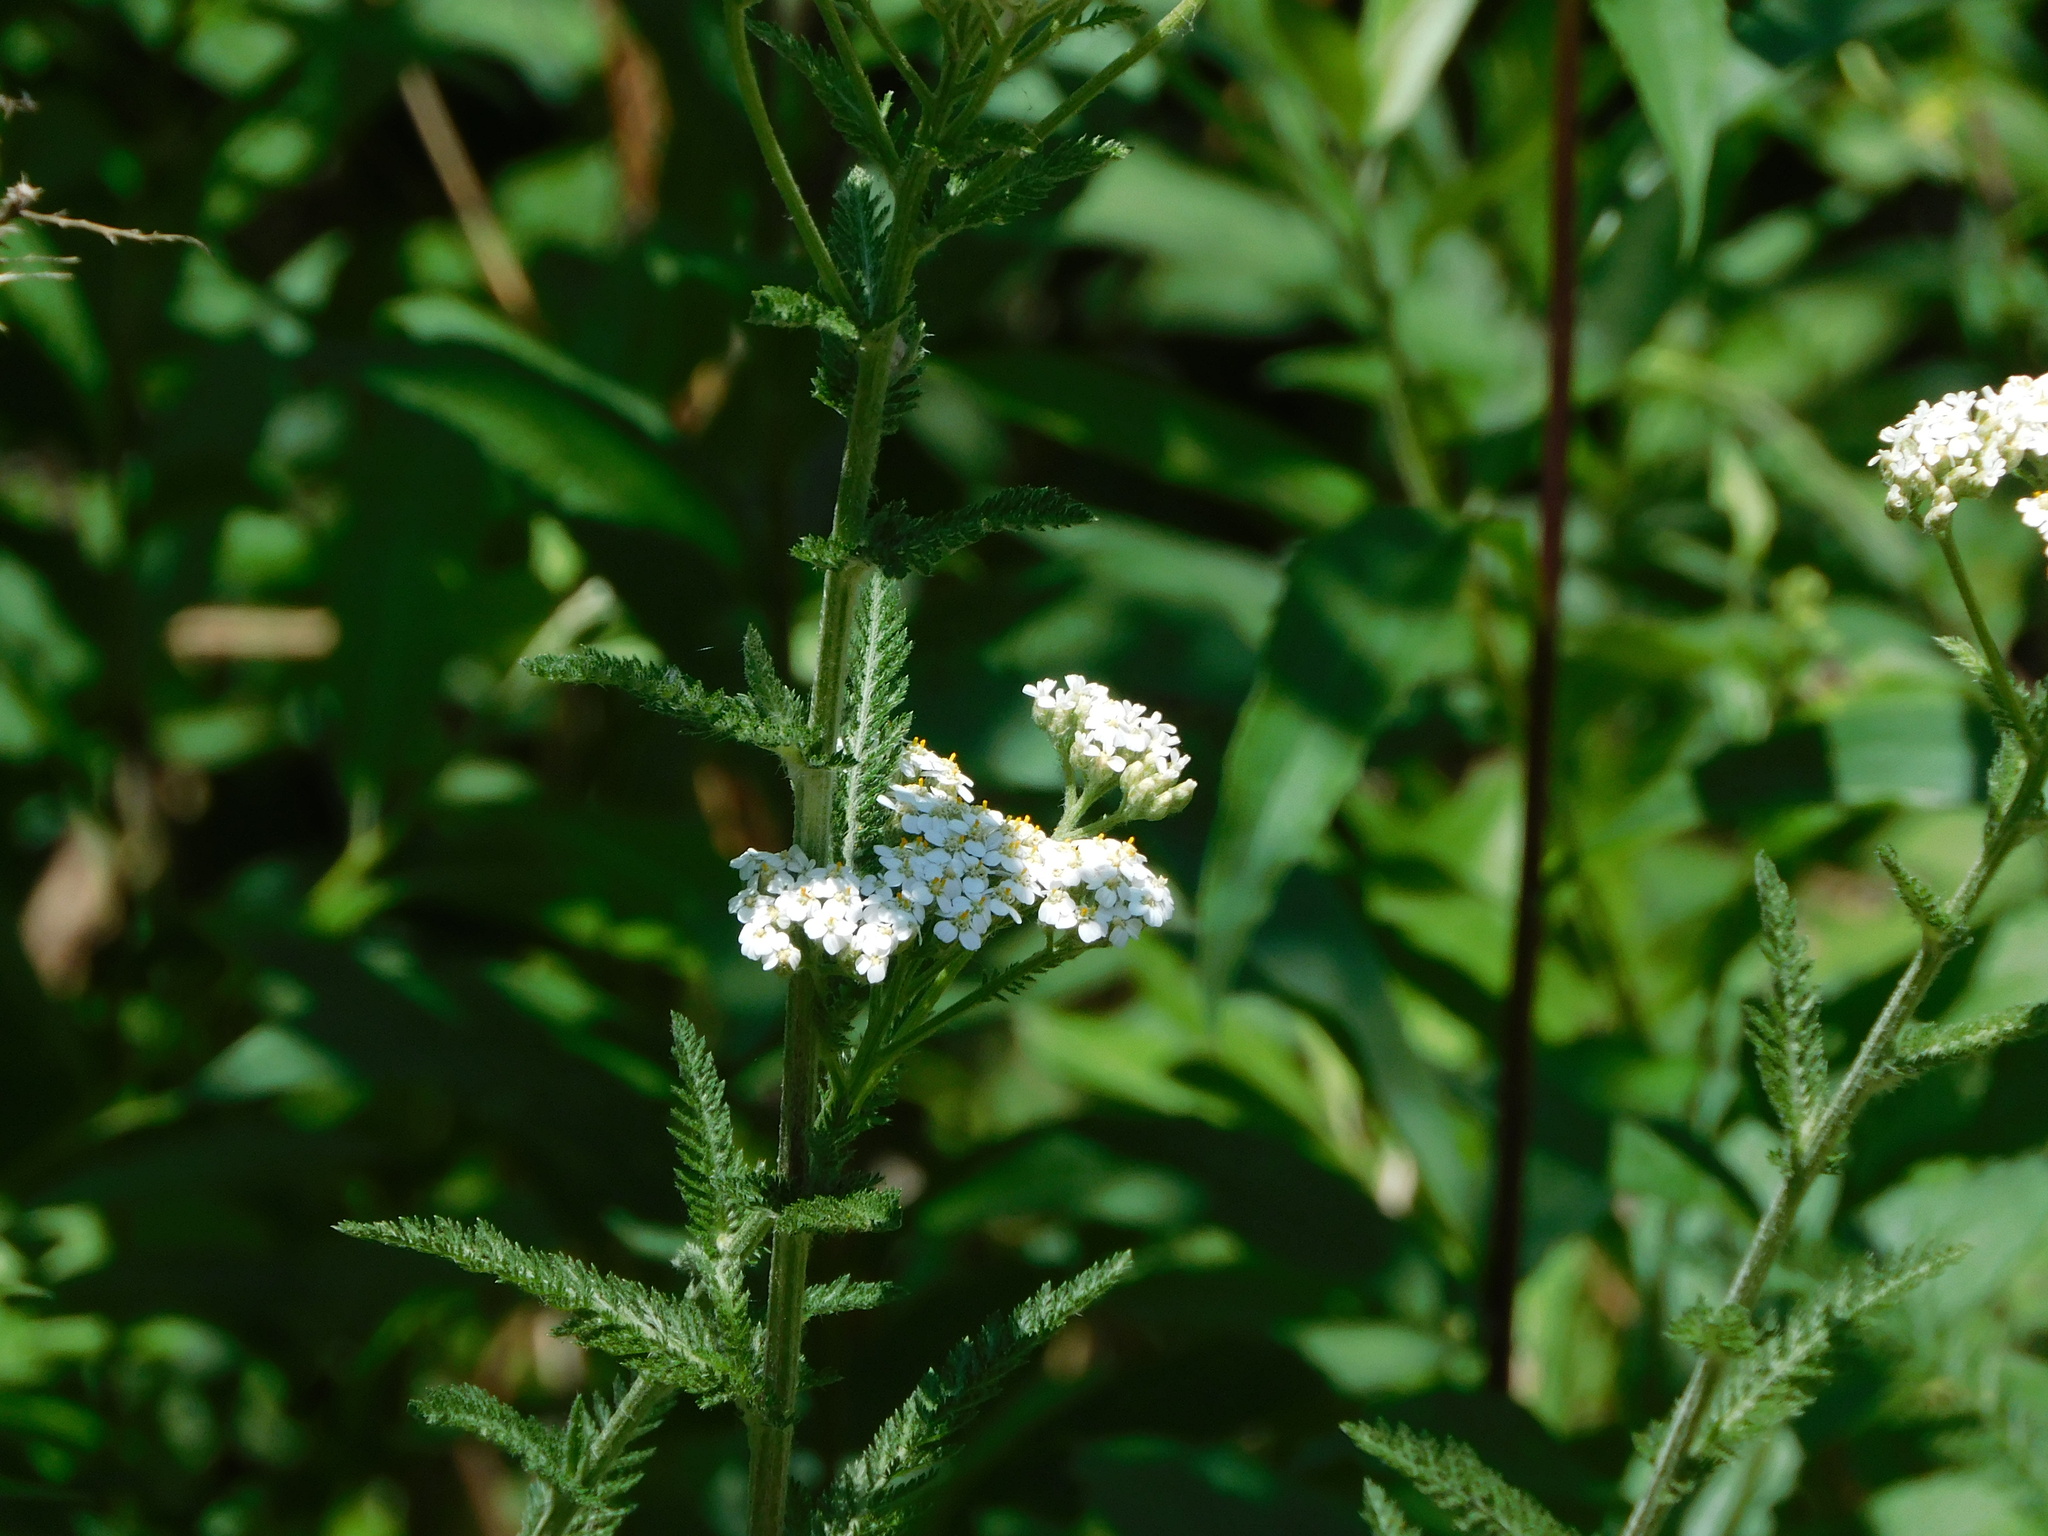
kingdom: Plantae
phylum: Tracheophyta
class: Magnoliopsida
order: Asterales
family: Asteraceae
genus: Achillea
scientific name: Achillea millefolium
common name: Yarrow
